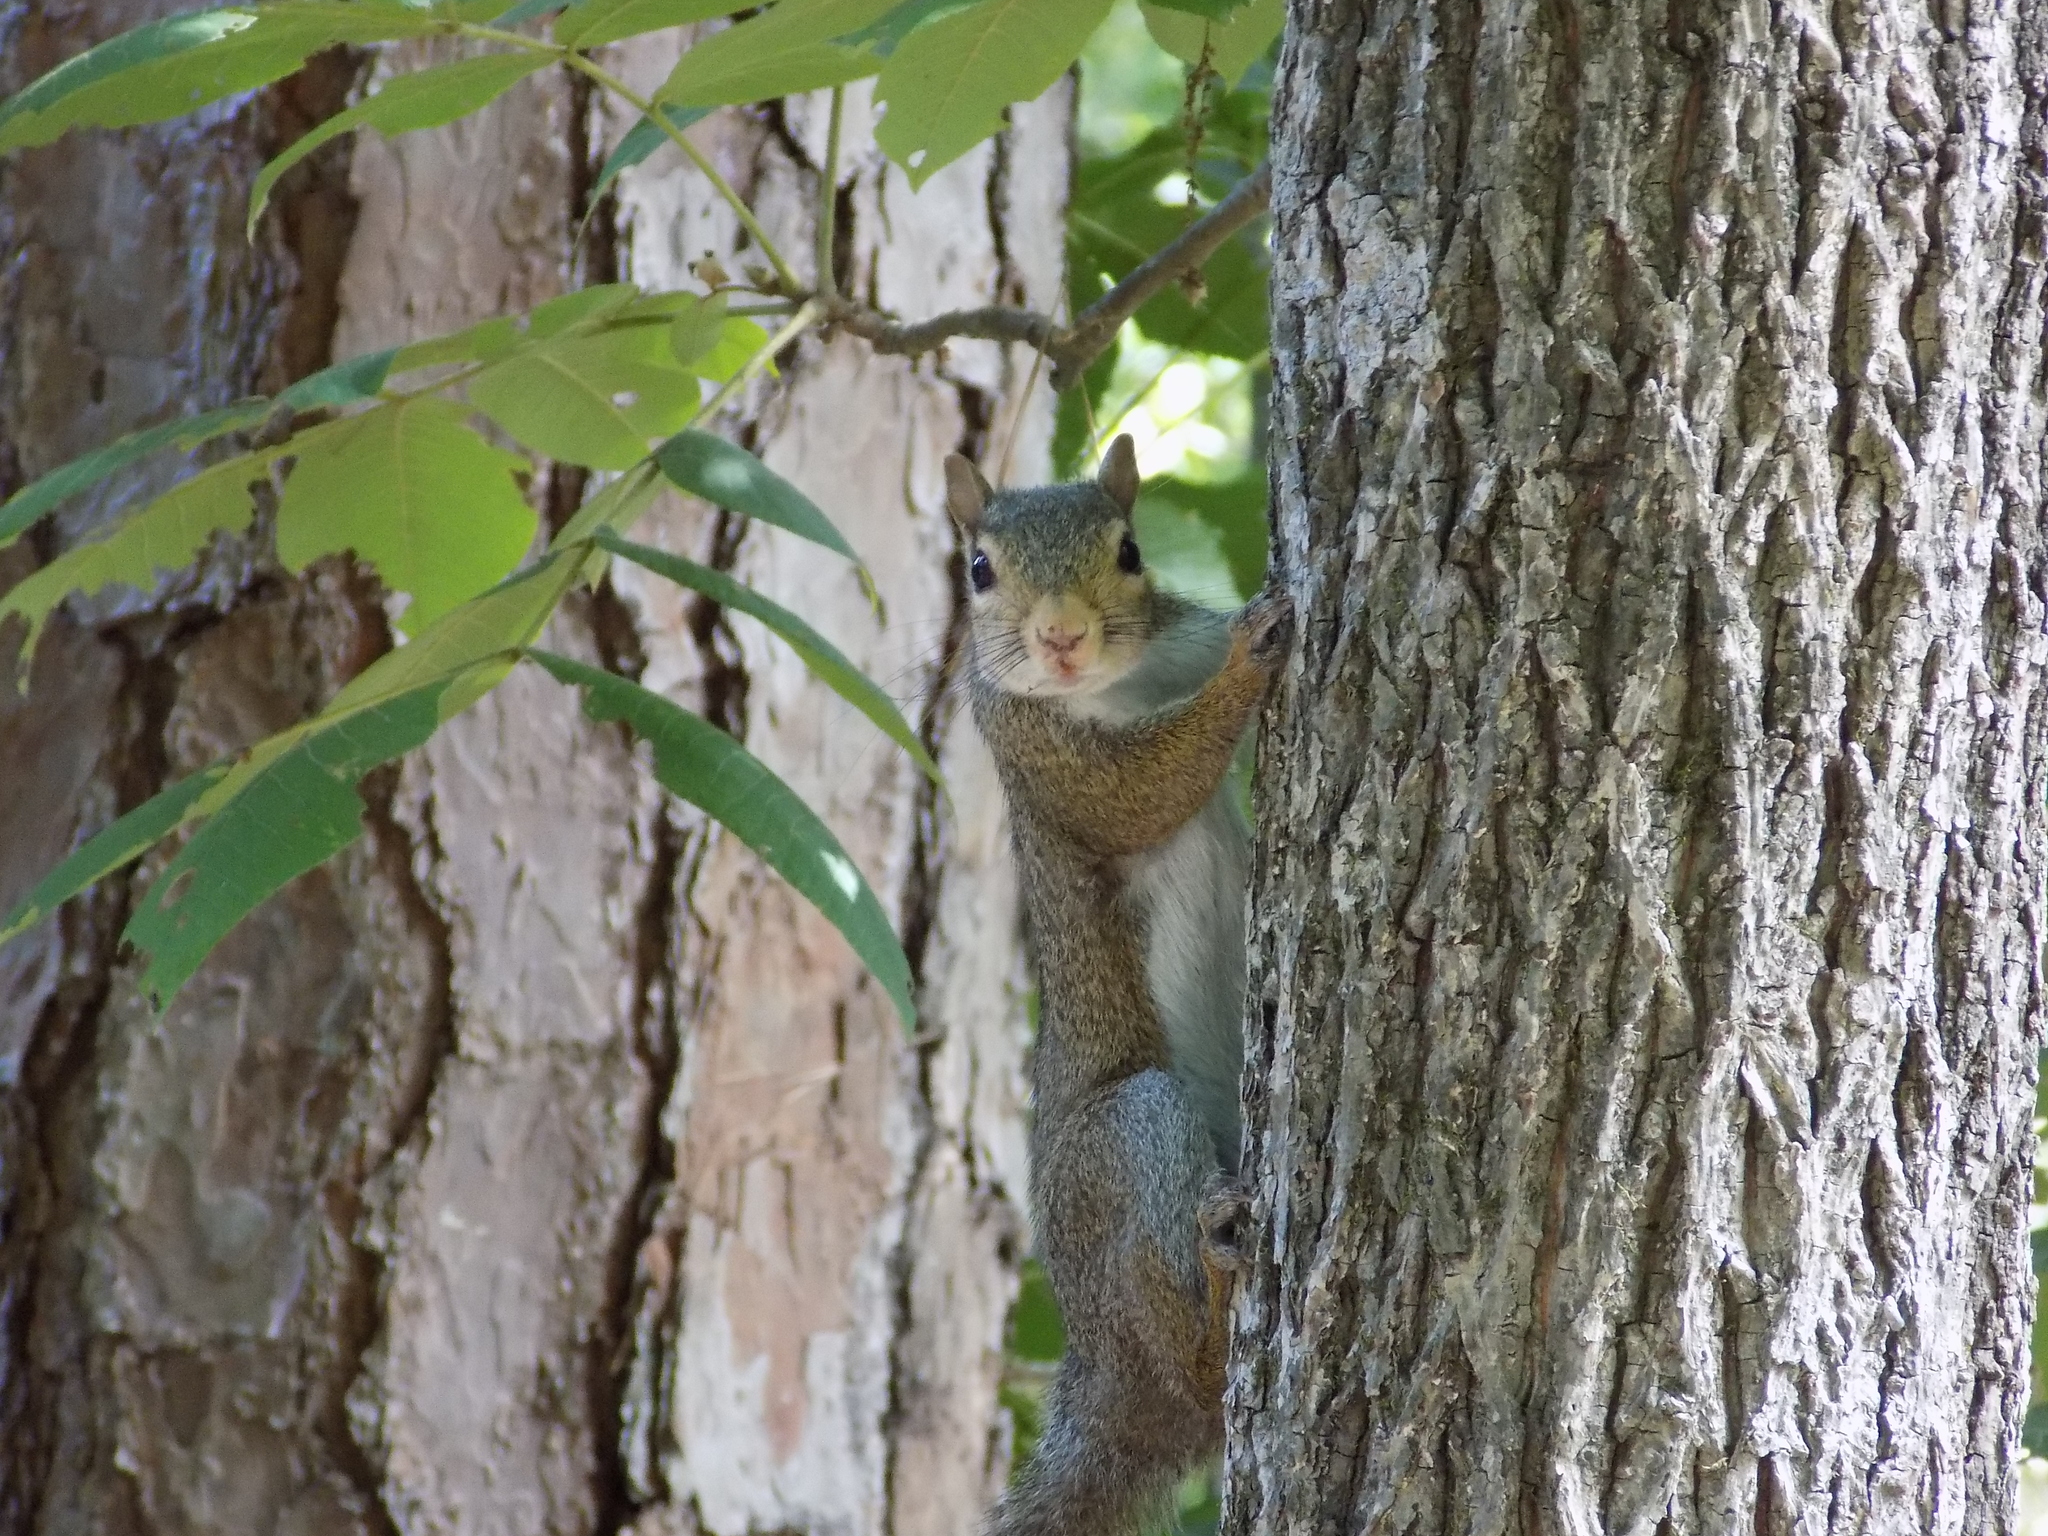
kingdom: Animalia
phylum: Chordata
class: Mammalia
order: Rodentia
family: Sciuridae
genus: Sciurus
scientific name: Sciurus carolinensis
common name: Eastern gray squirrel
